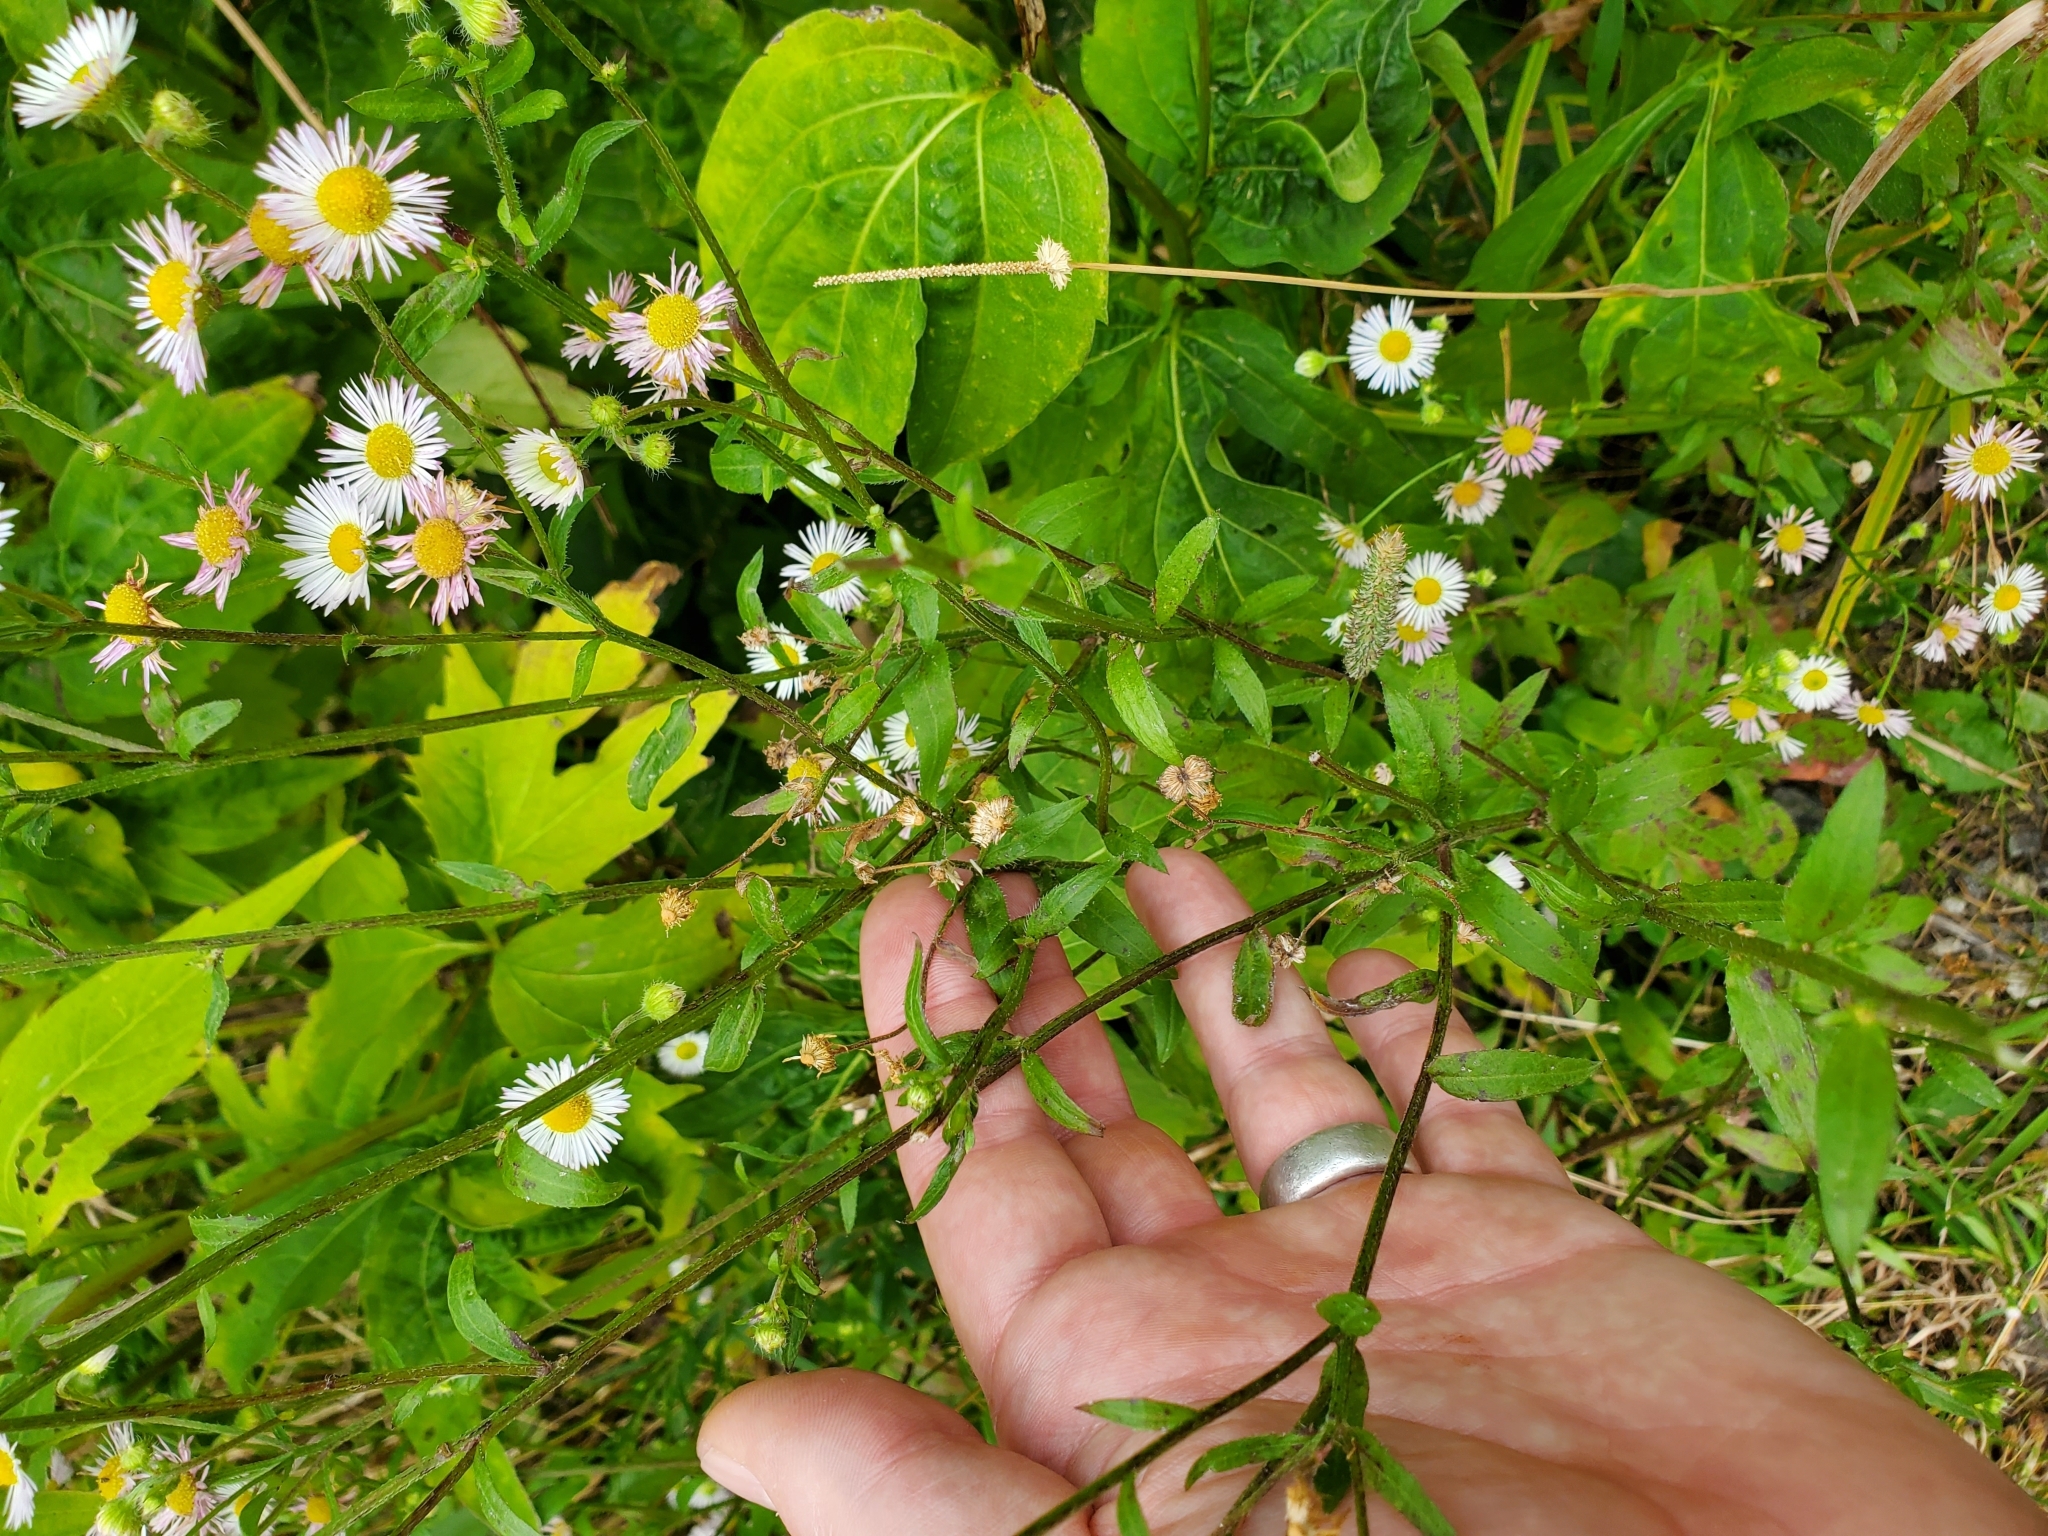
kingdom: Plantae
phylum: Tracheophyta
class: Magnoliopsida
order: Asterales
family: Asteraceae
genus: Erigeron
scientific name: Erigeron annuus
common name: Tall fleabane
